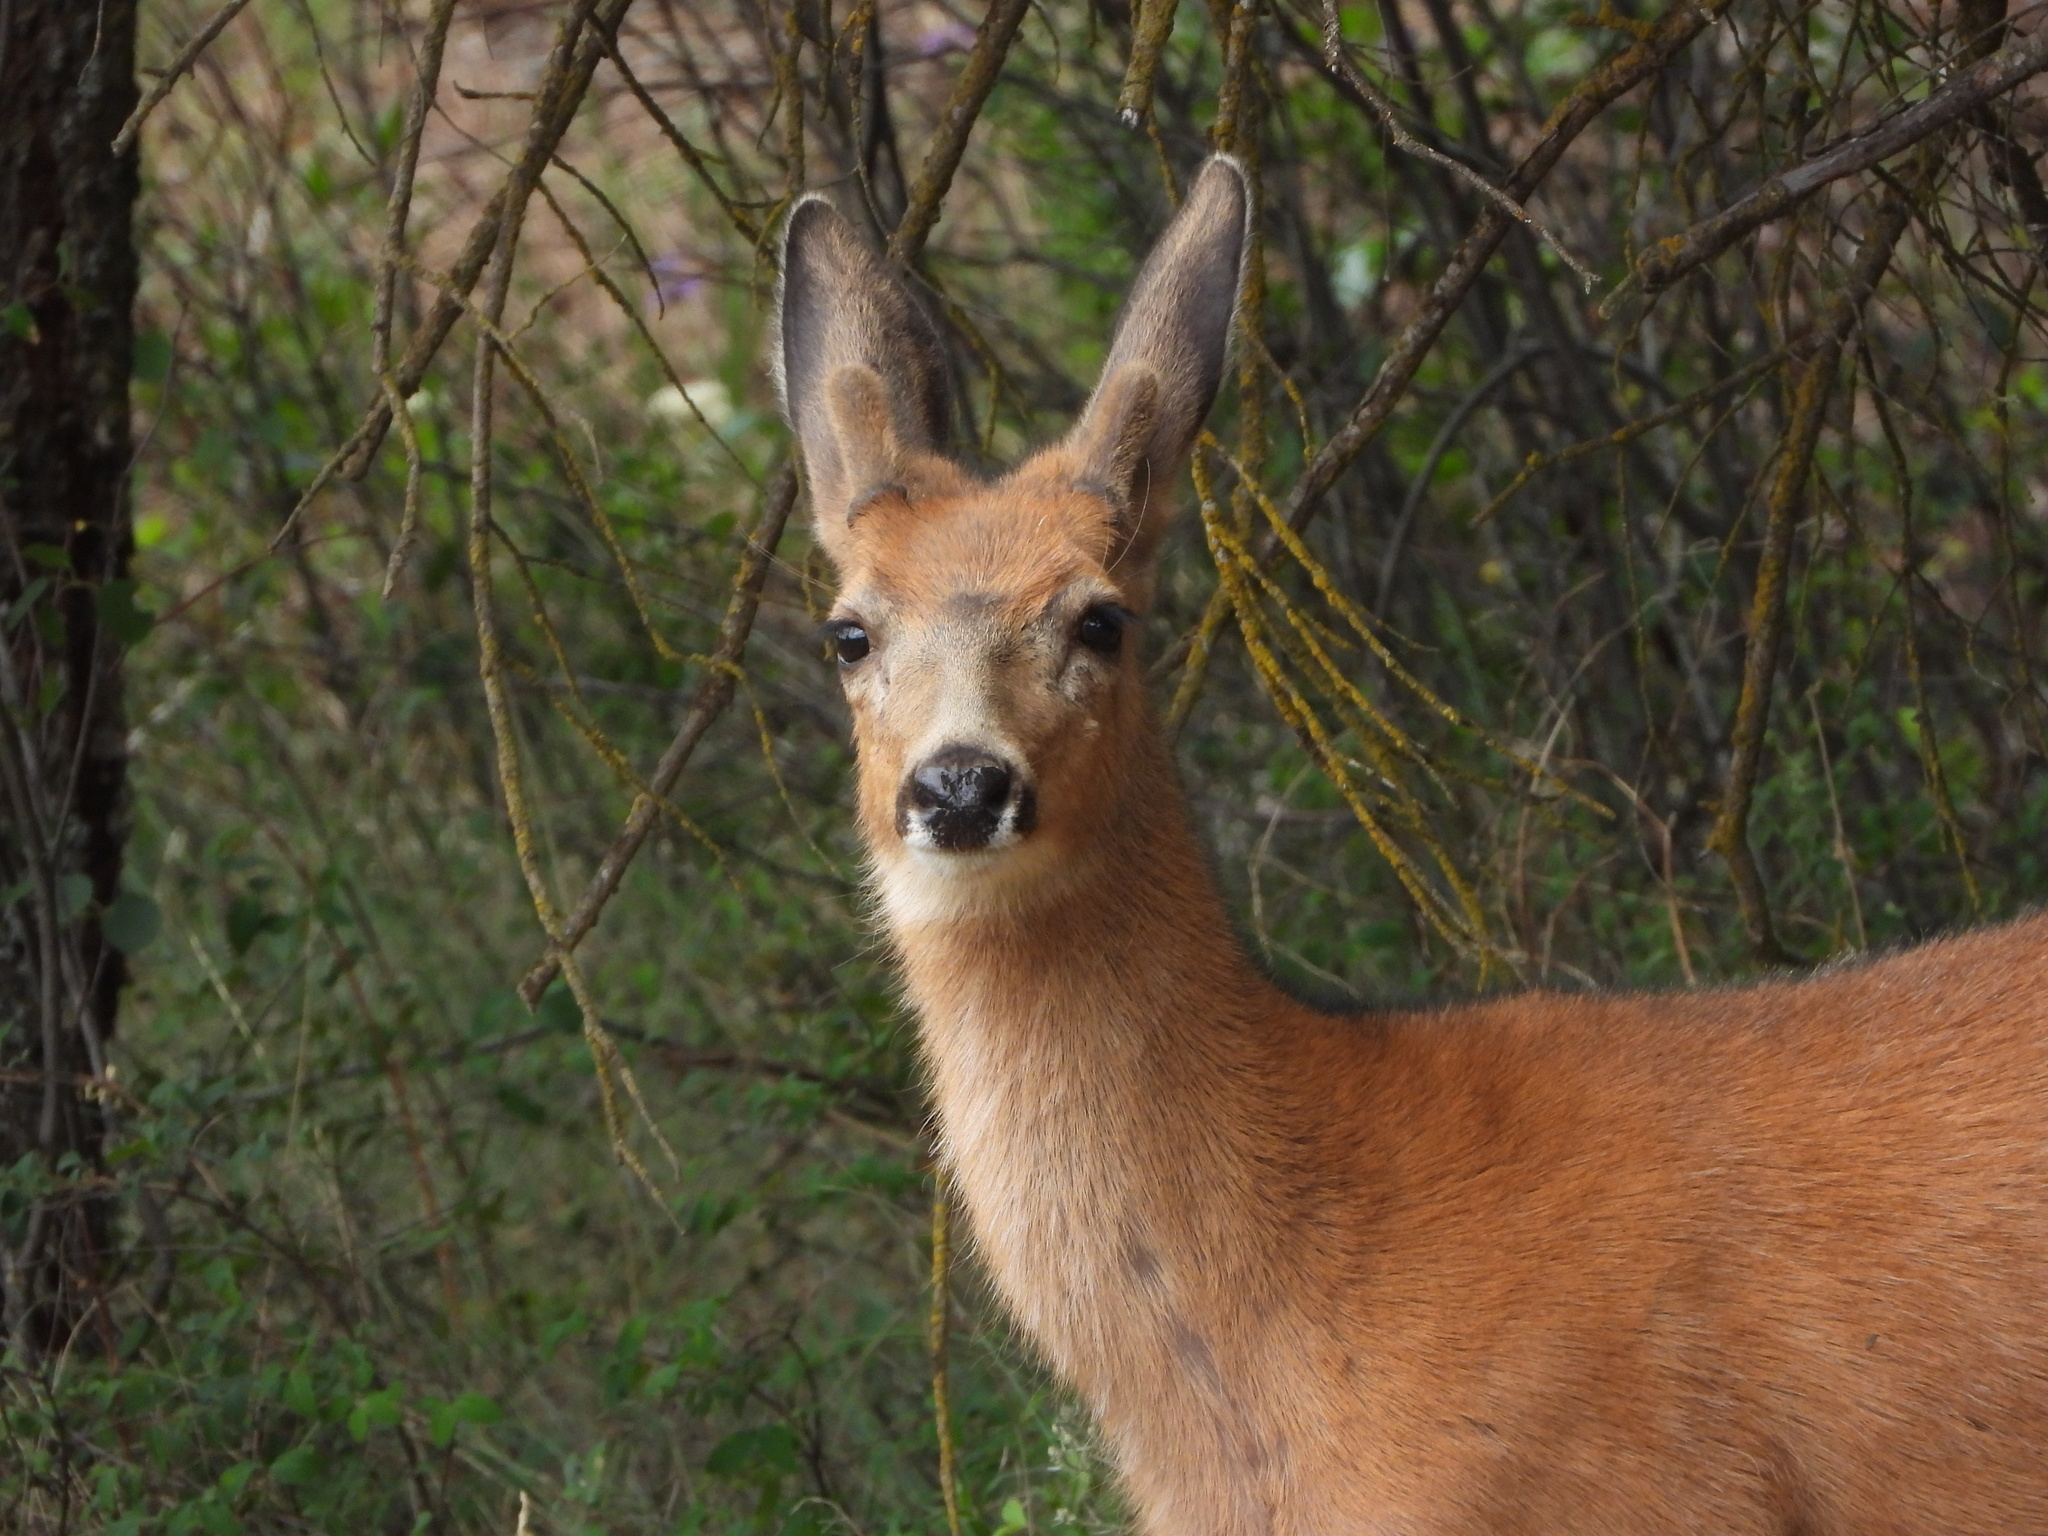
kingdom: Animalia
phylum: Chordata
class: Mammalia
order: Artiodactyla
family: Cervidae
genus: Odocoileus
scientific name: Odocoileus hemionus
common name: Mule deer
